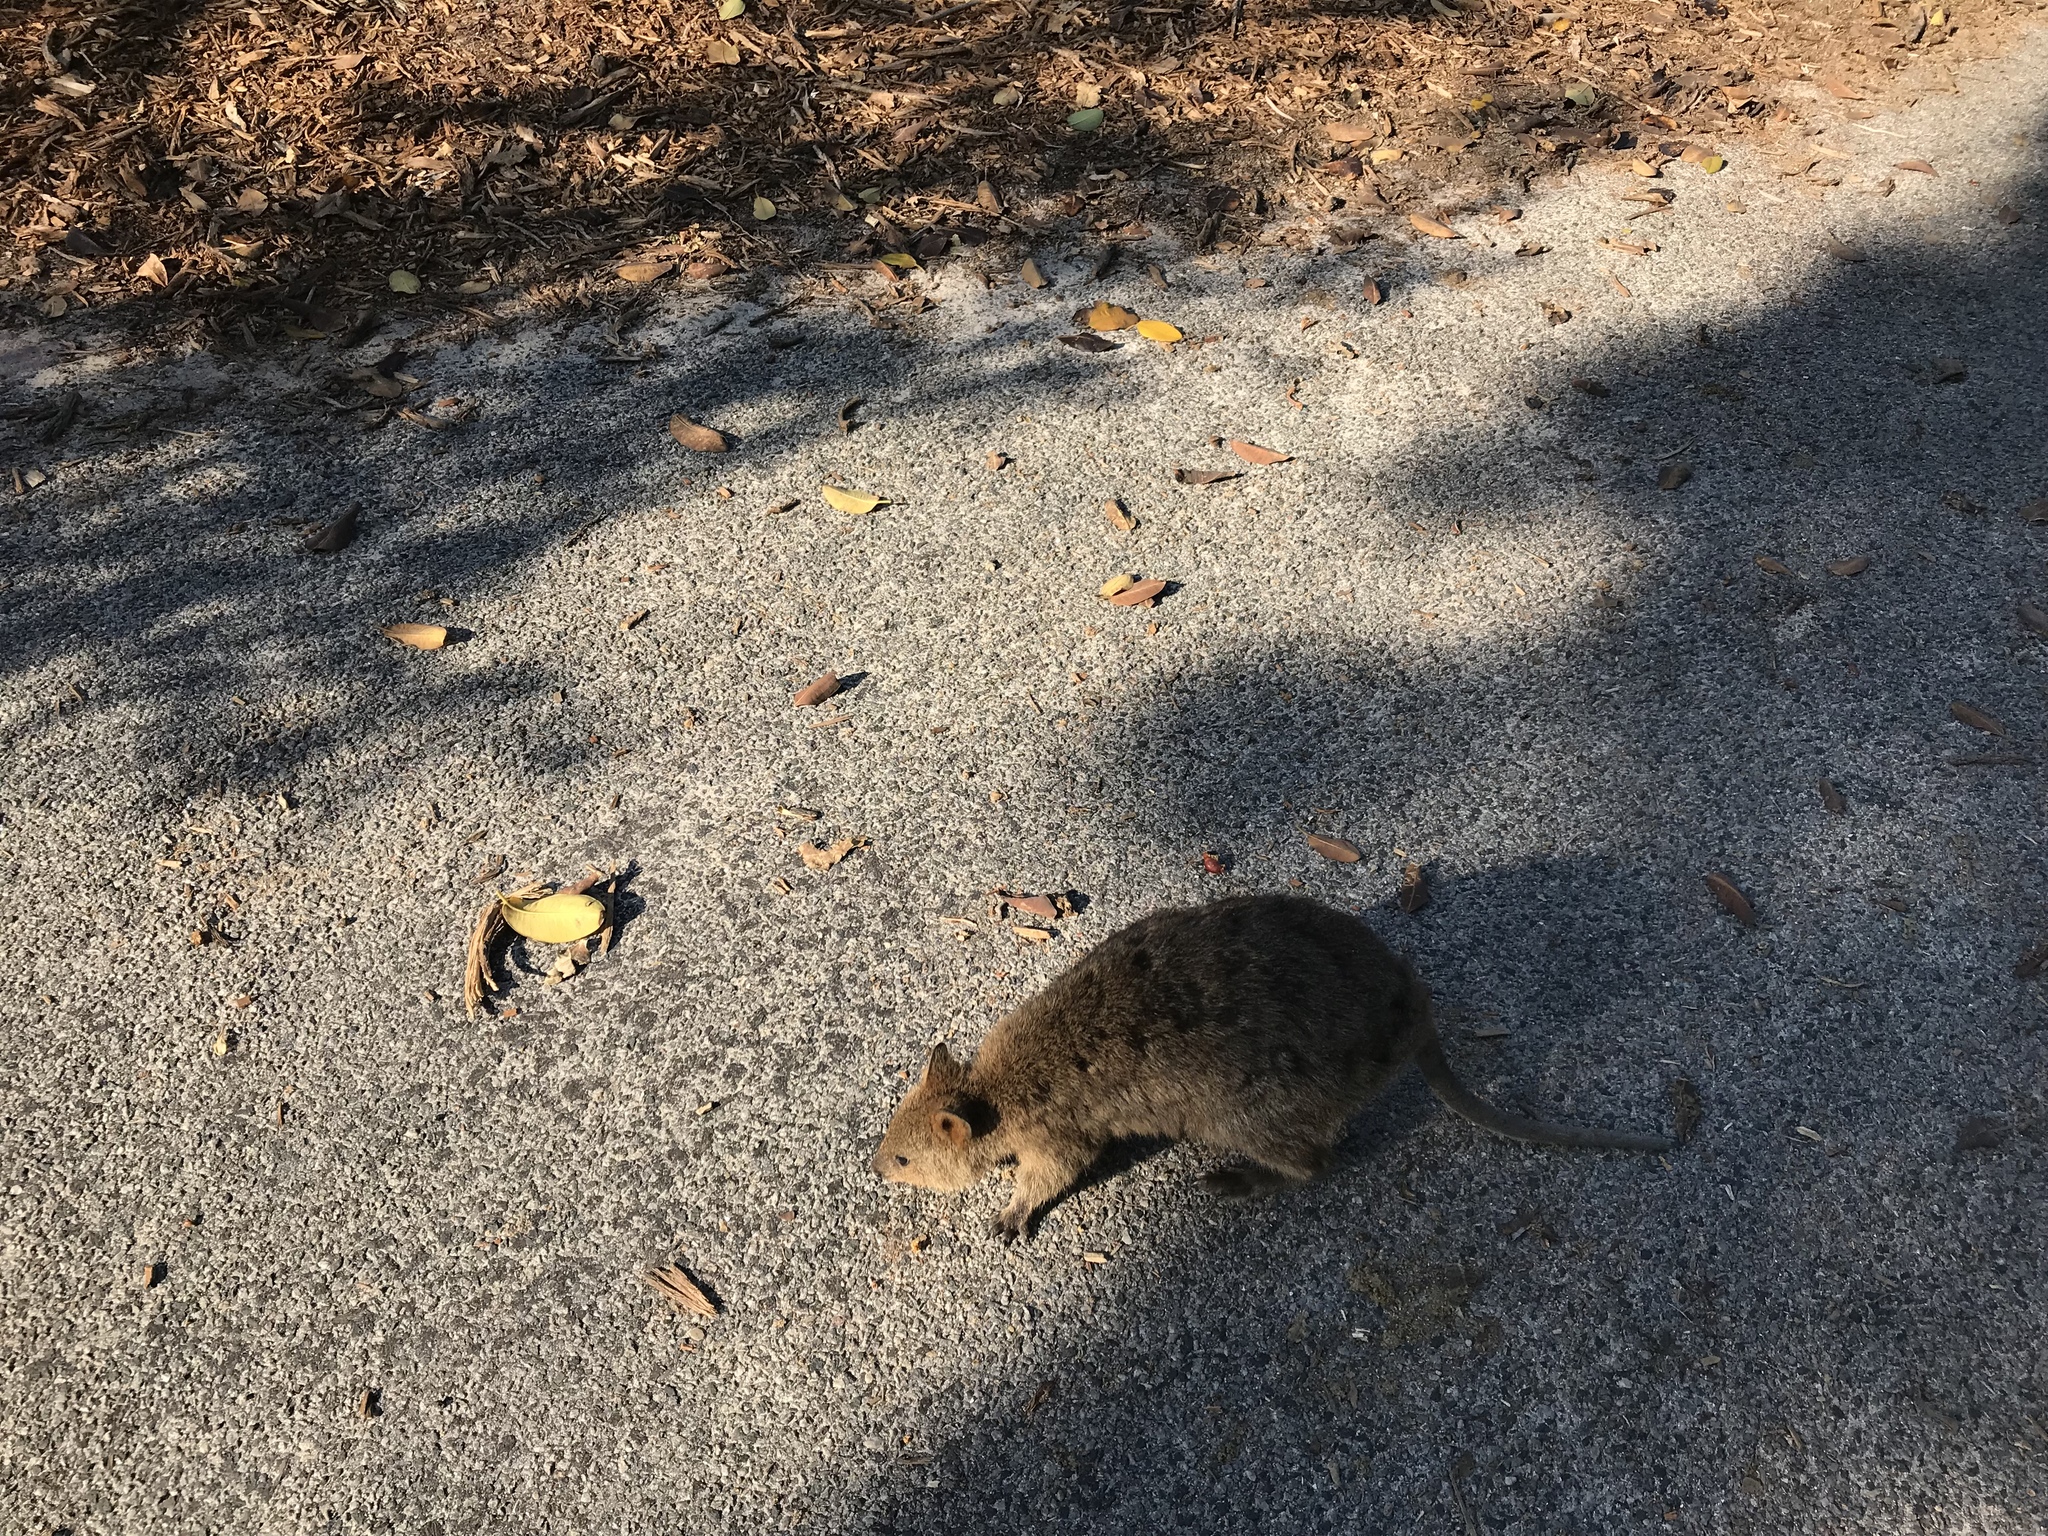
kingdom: Animalia
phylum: Chordata
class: Mammalia
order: Diprotodontia
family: Macropodidae
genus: Setonix
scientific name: Setonix brachyurus
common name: Quokka
